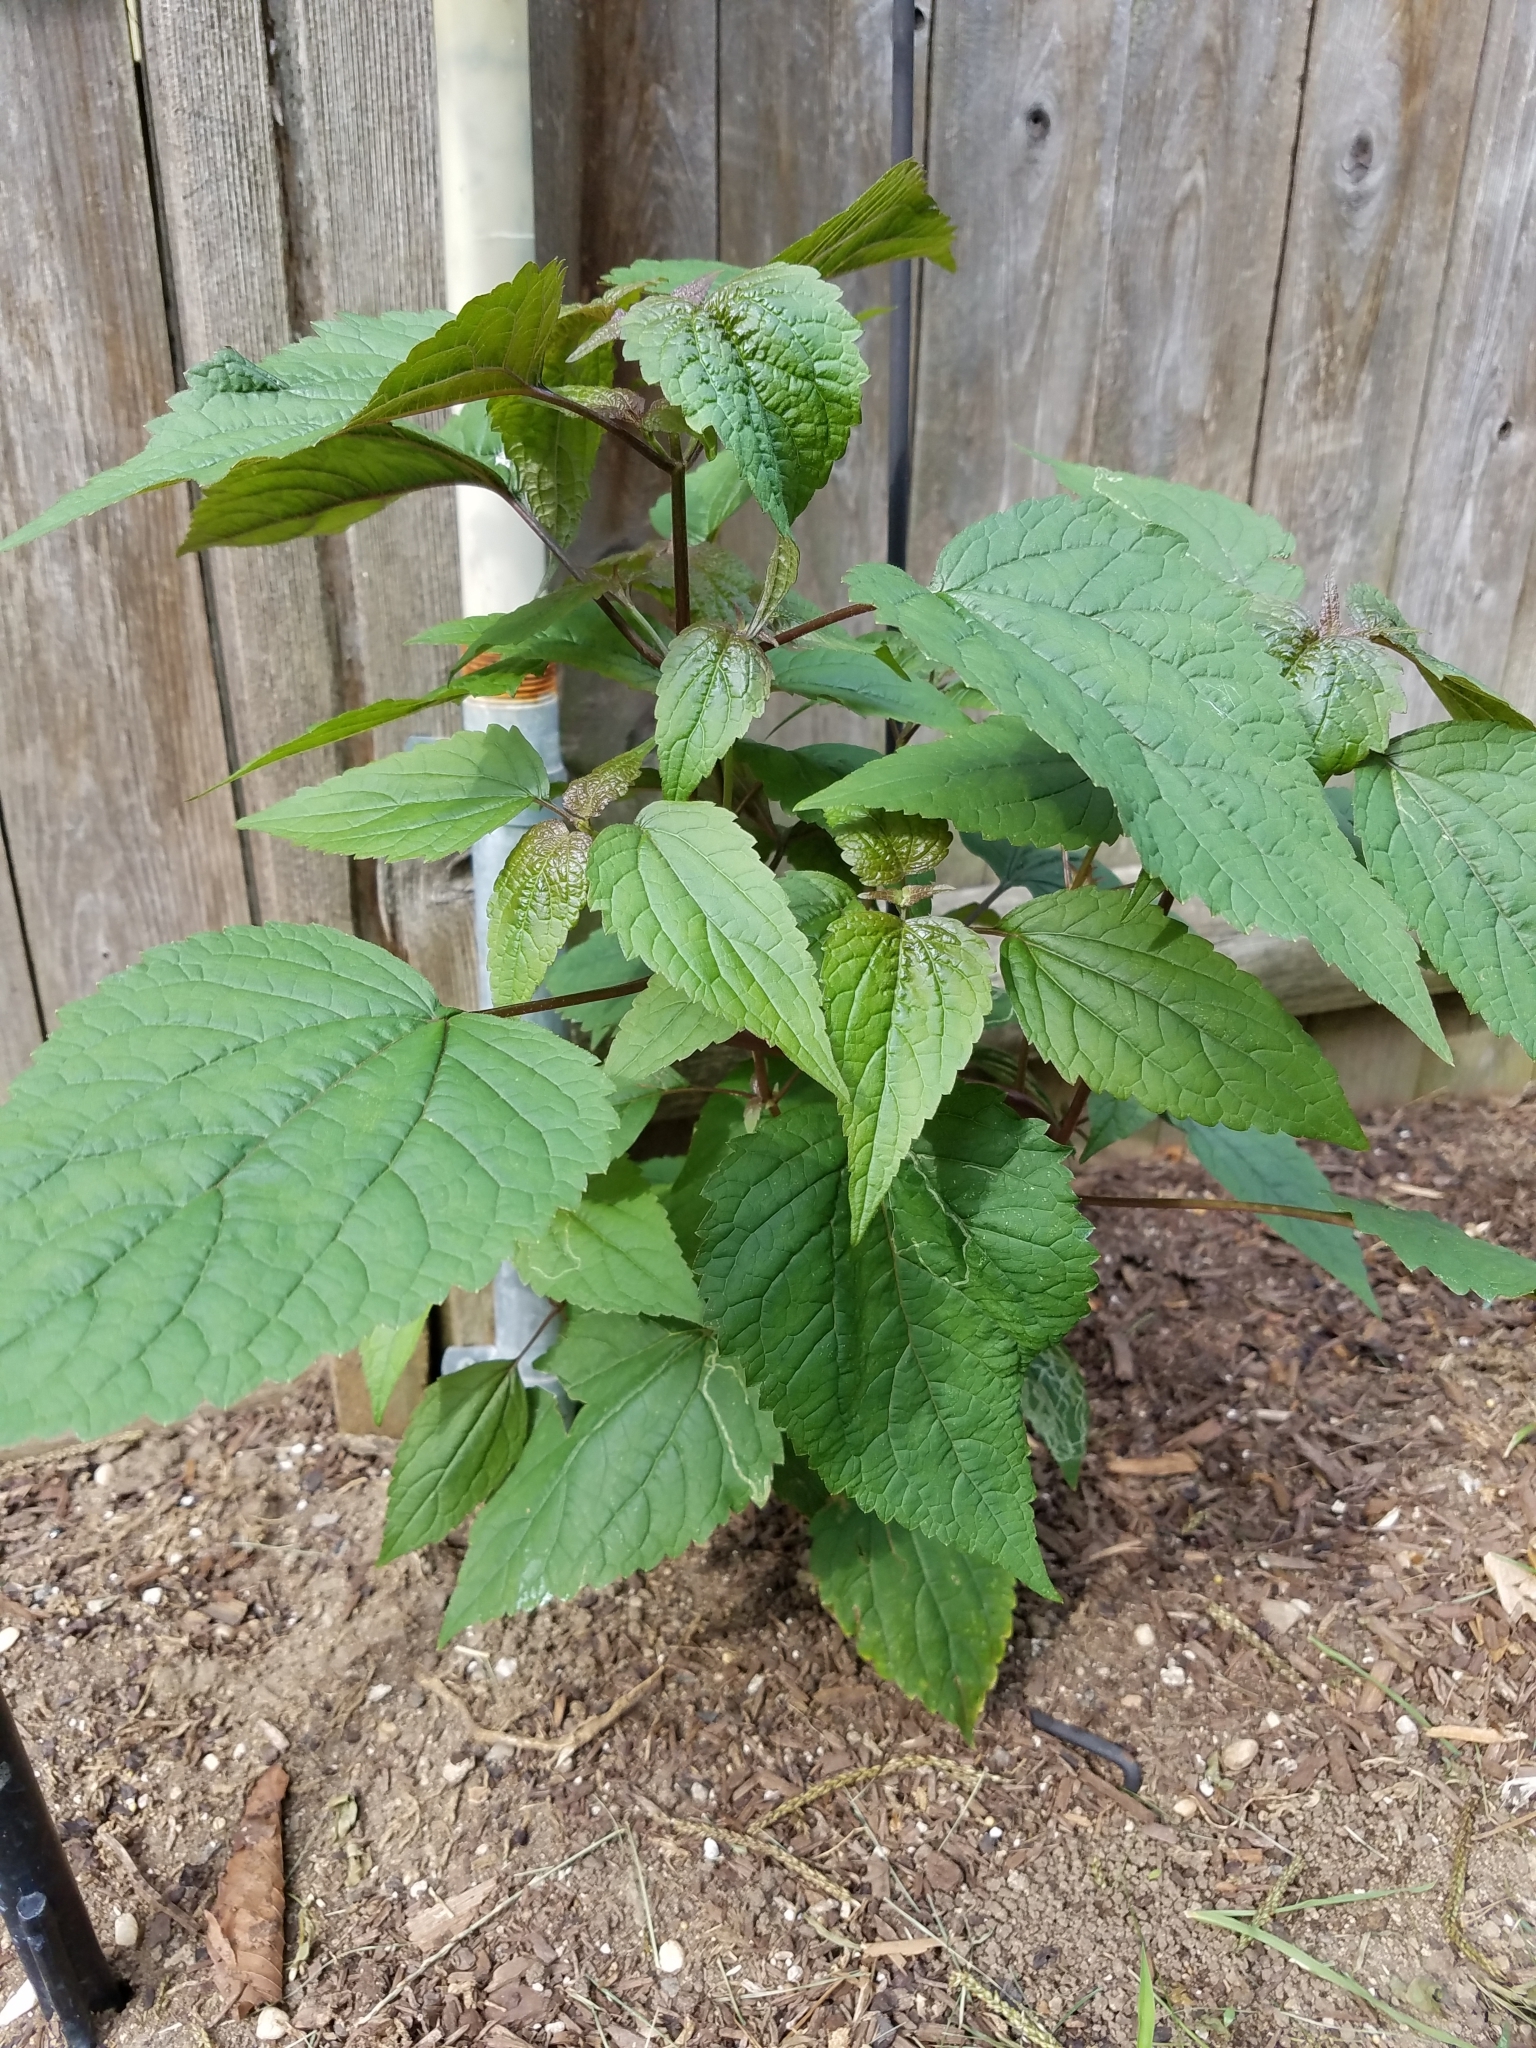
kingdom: Plantae
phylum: Tracheophyta
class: Magnoliopsida
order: Asterales
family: Asteraceae
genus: Ageratina
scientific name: Ageratina altissima
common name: White snakeroot
